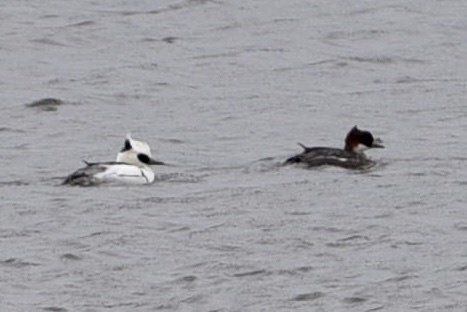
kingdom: Animalia
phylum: Chordata
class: Aves
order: Anseriformes
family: Anatidae
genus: Mergellus
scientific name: Mergellus albellus
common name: Smew
